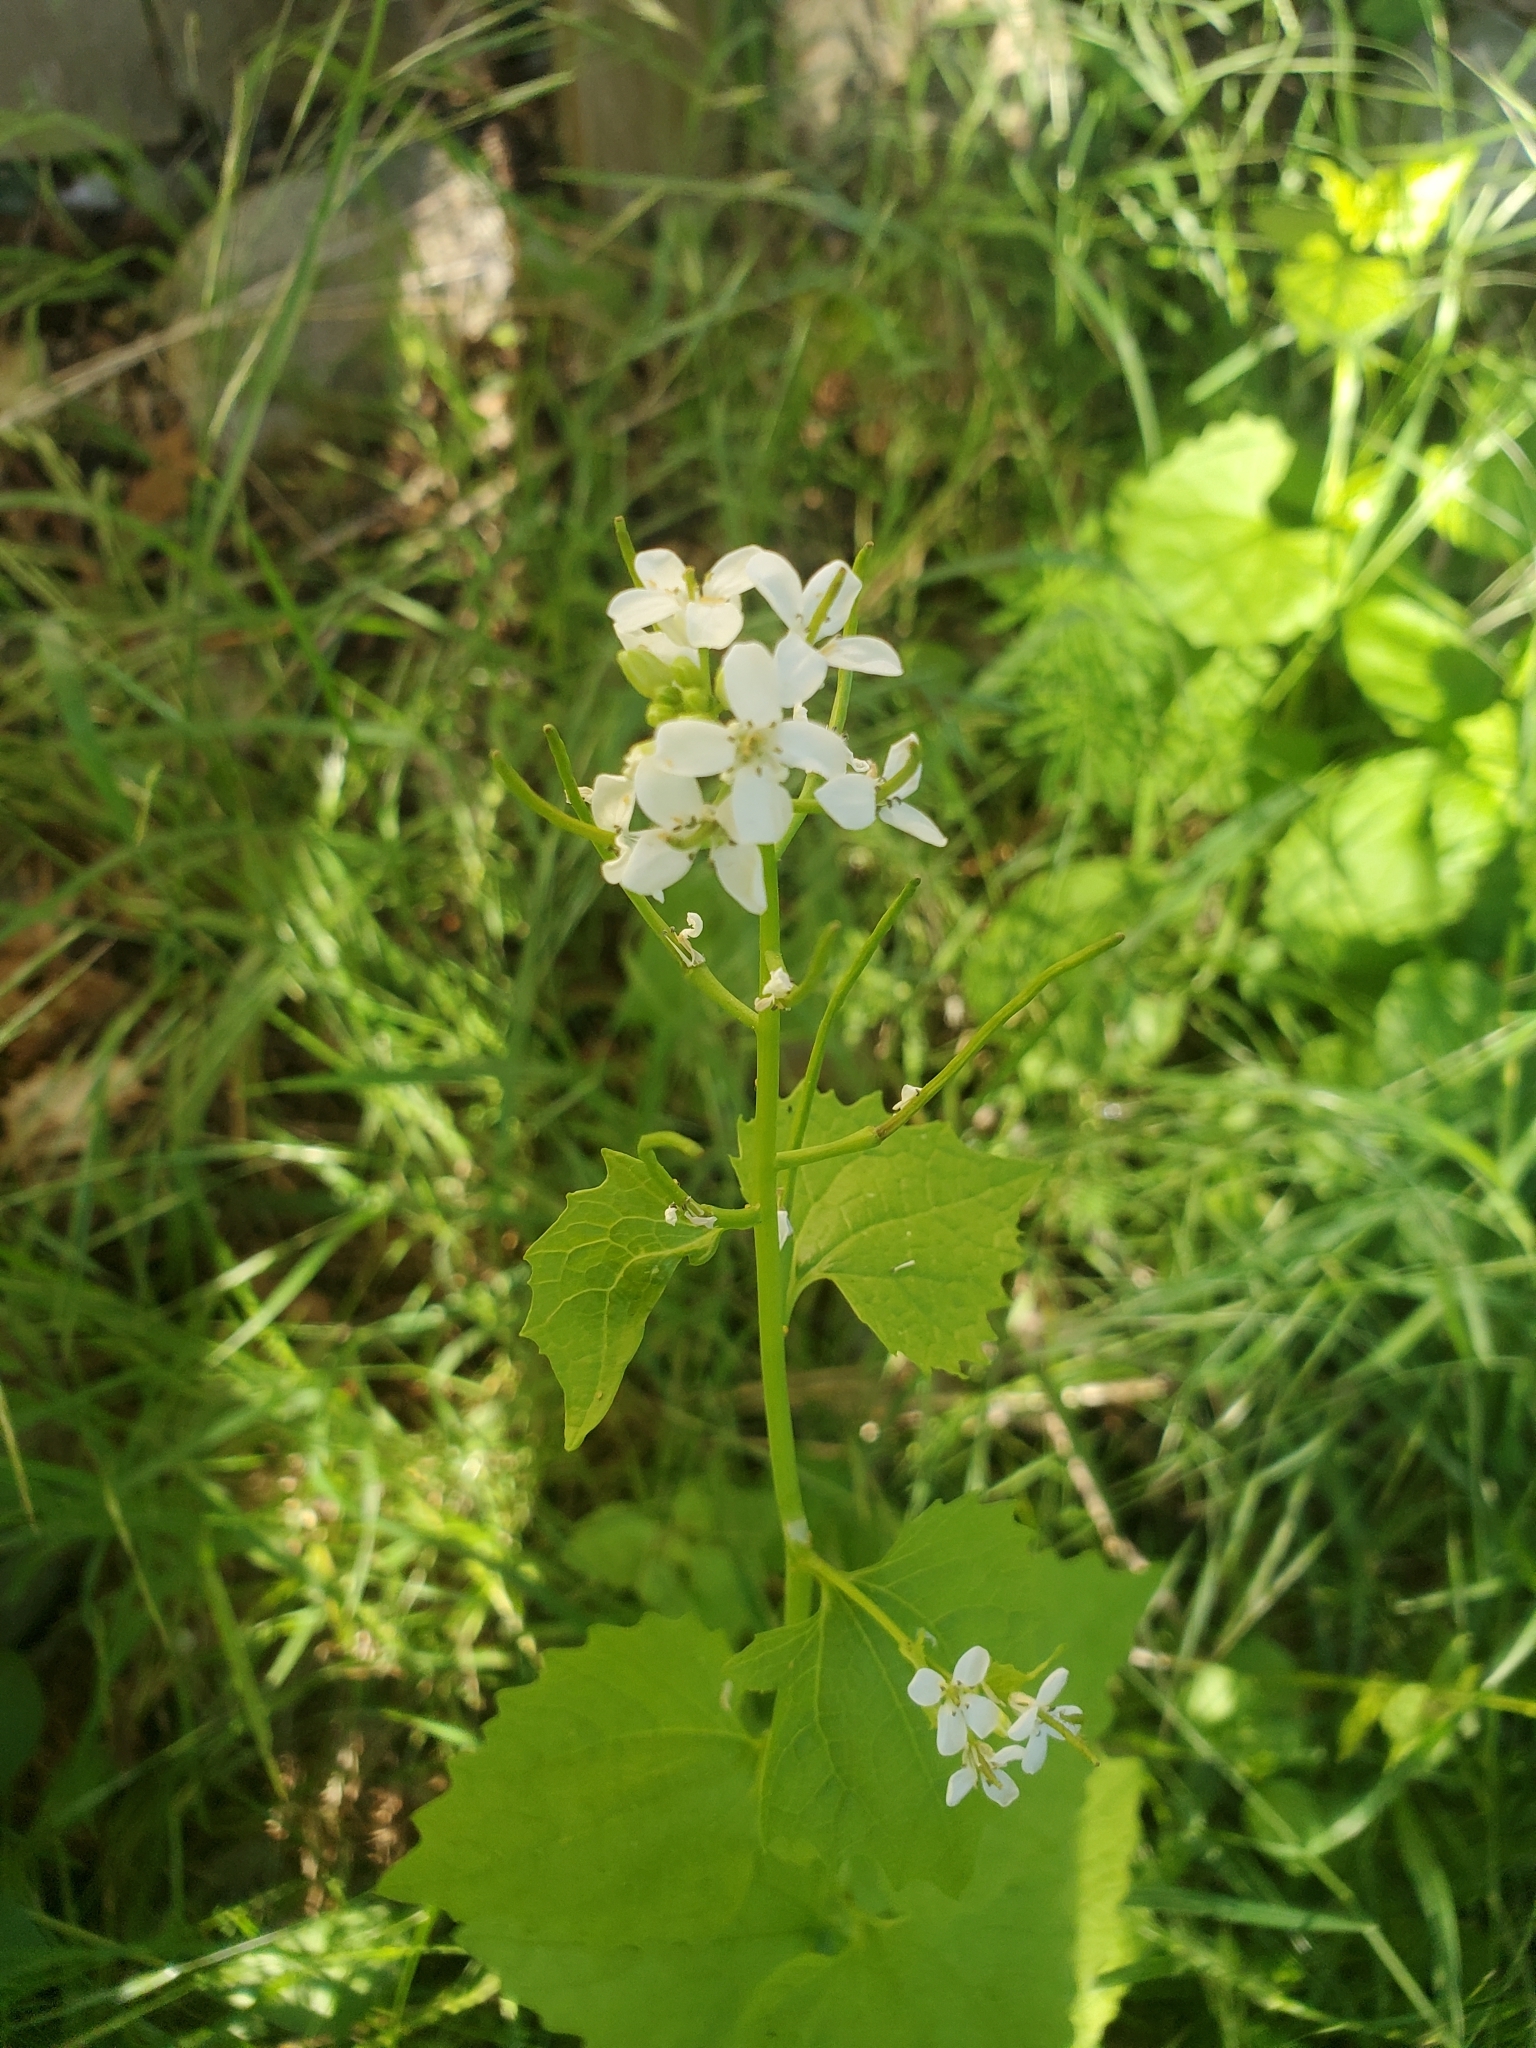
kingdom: Plantae
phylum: Tracheophyta
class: Magnoliopsida
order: Brassicales
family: Brassicaceae
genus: Alliaria
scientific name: Alliaria petiolata
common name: Garlic mustard
